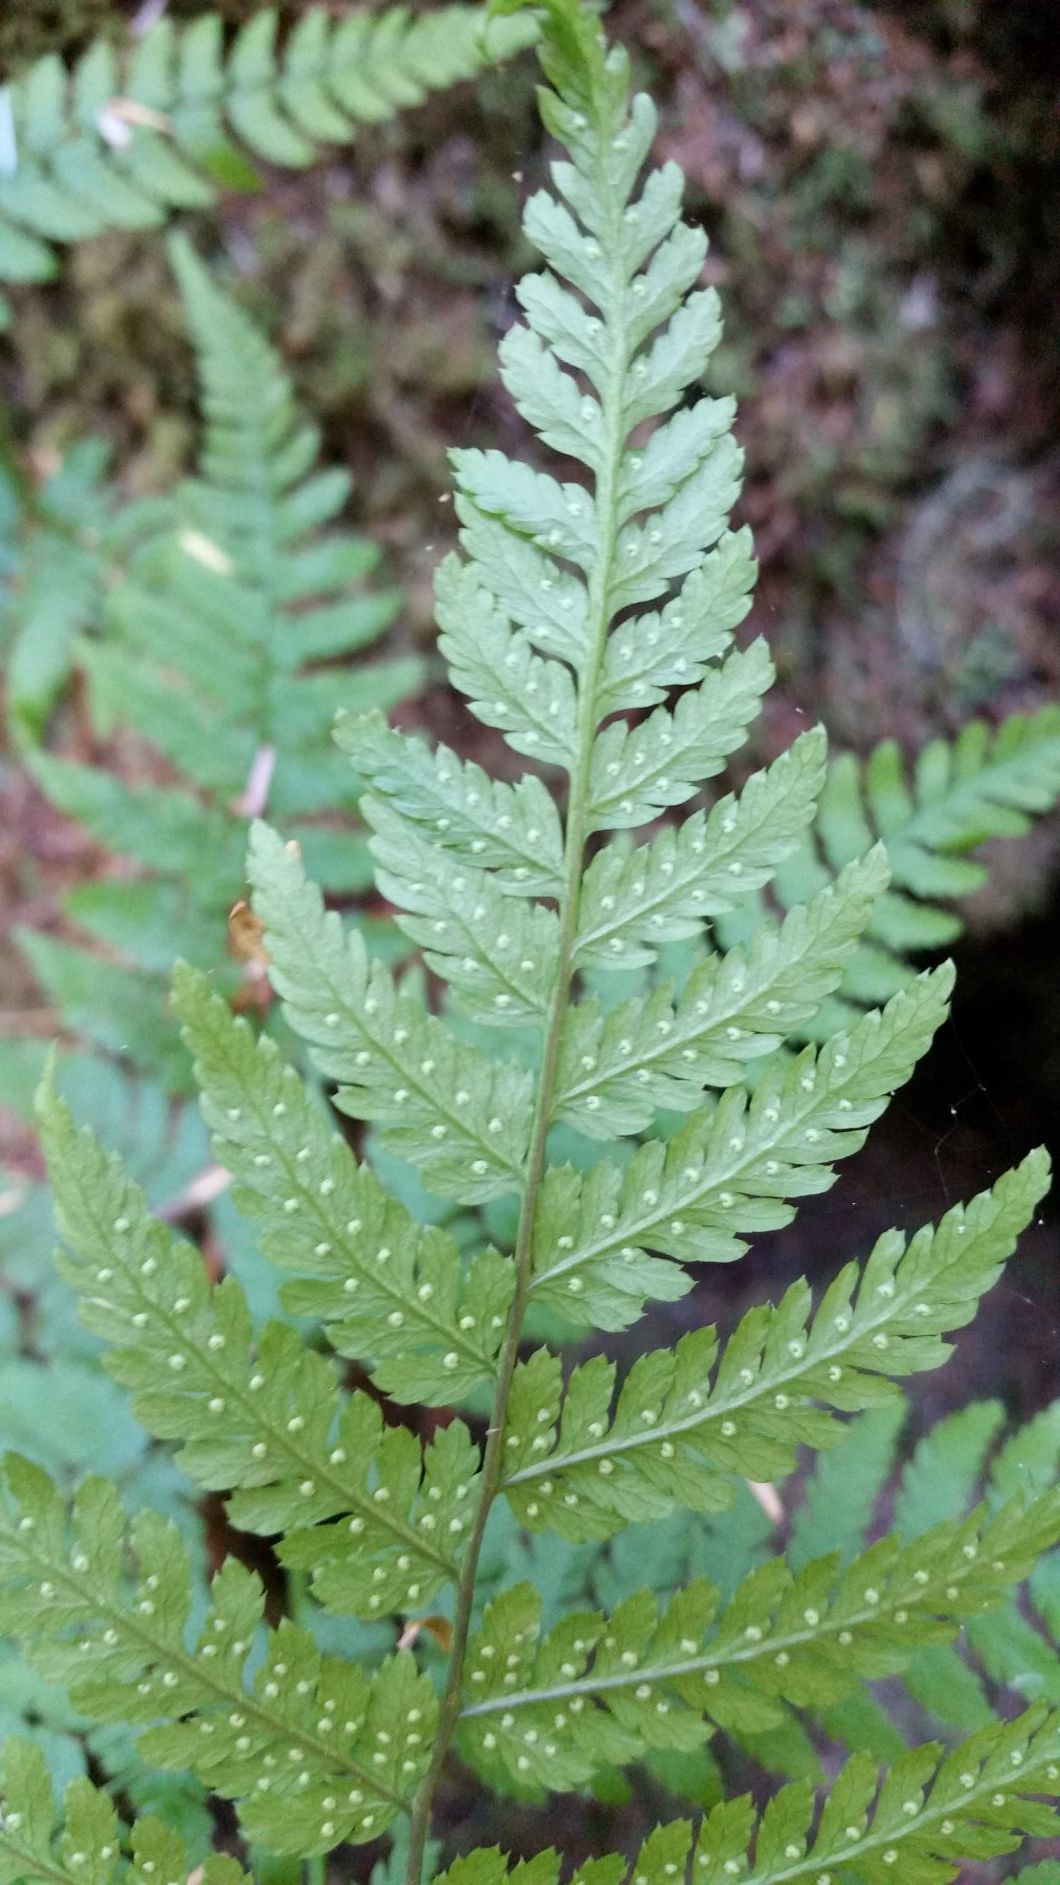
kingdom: Plantae
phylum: Tracheophyta
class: Polypodiopsida
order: Polypodiales
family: Dryopteridaceae
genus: Dryopteris
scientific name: Dryopteris expansa
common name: Northern buckler fern
